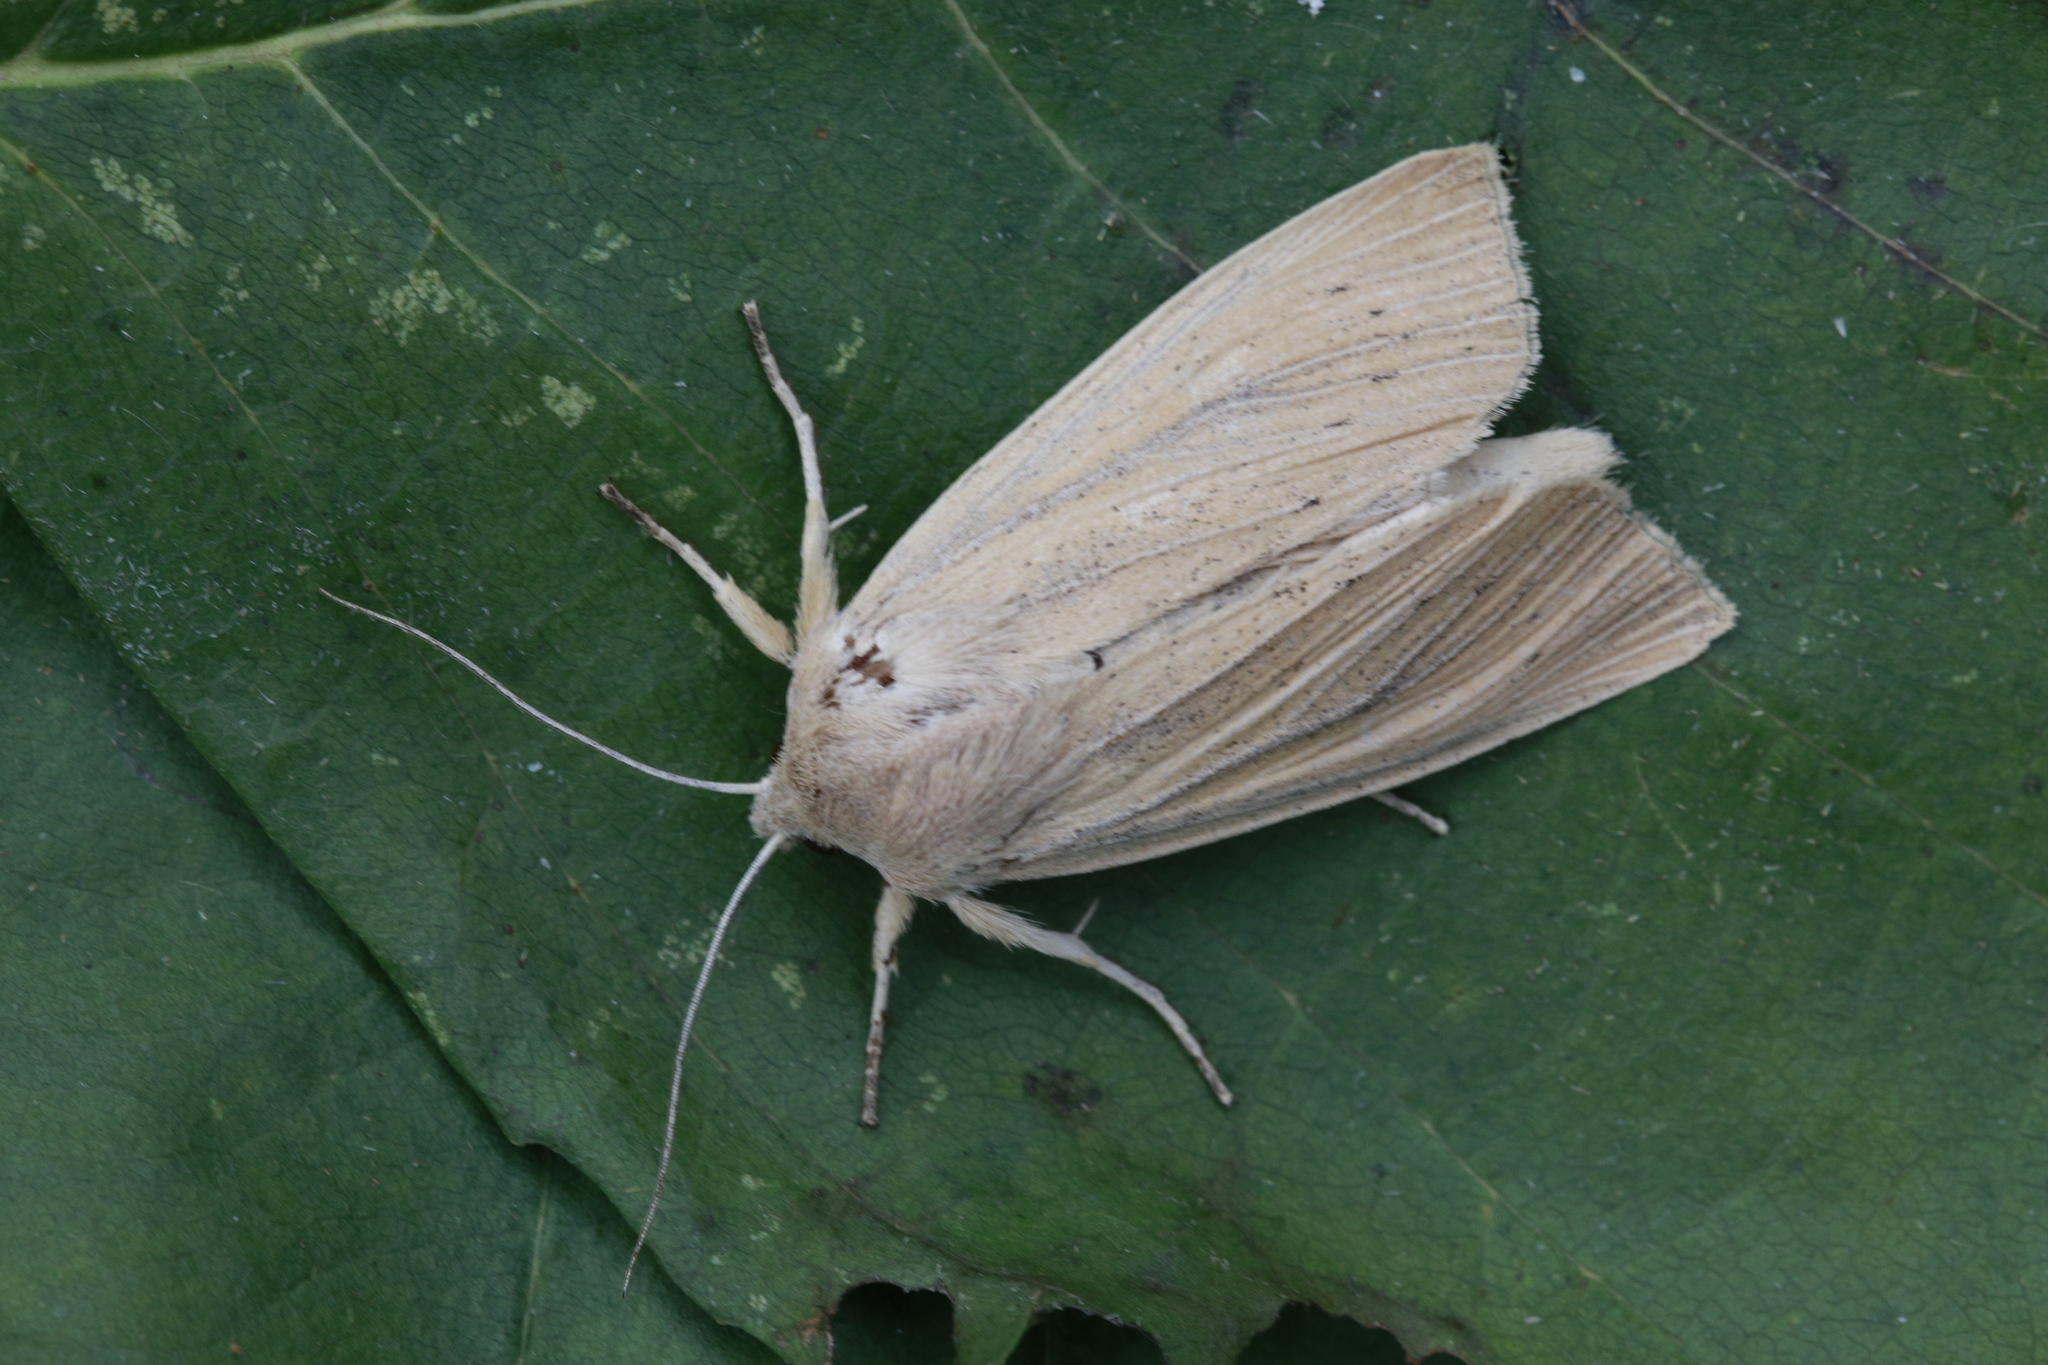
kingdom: Animalia
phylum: Arthropoda
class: Insecta
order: Lepidoptera
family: Noctuidae
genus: Rhizedra
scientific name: Rhizedra lutosa
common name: Large wainscot
